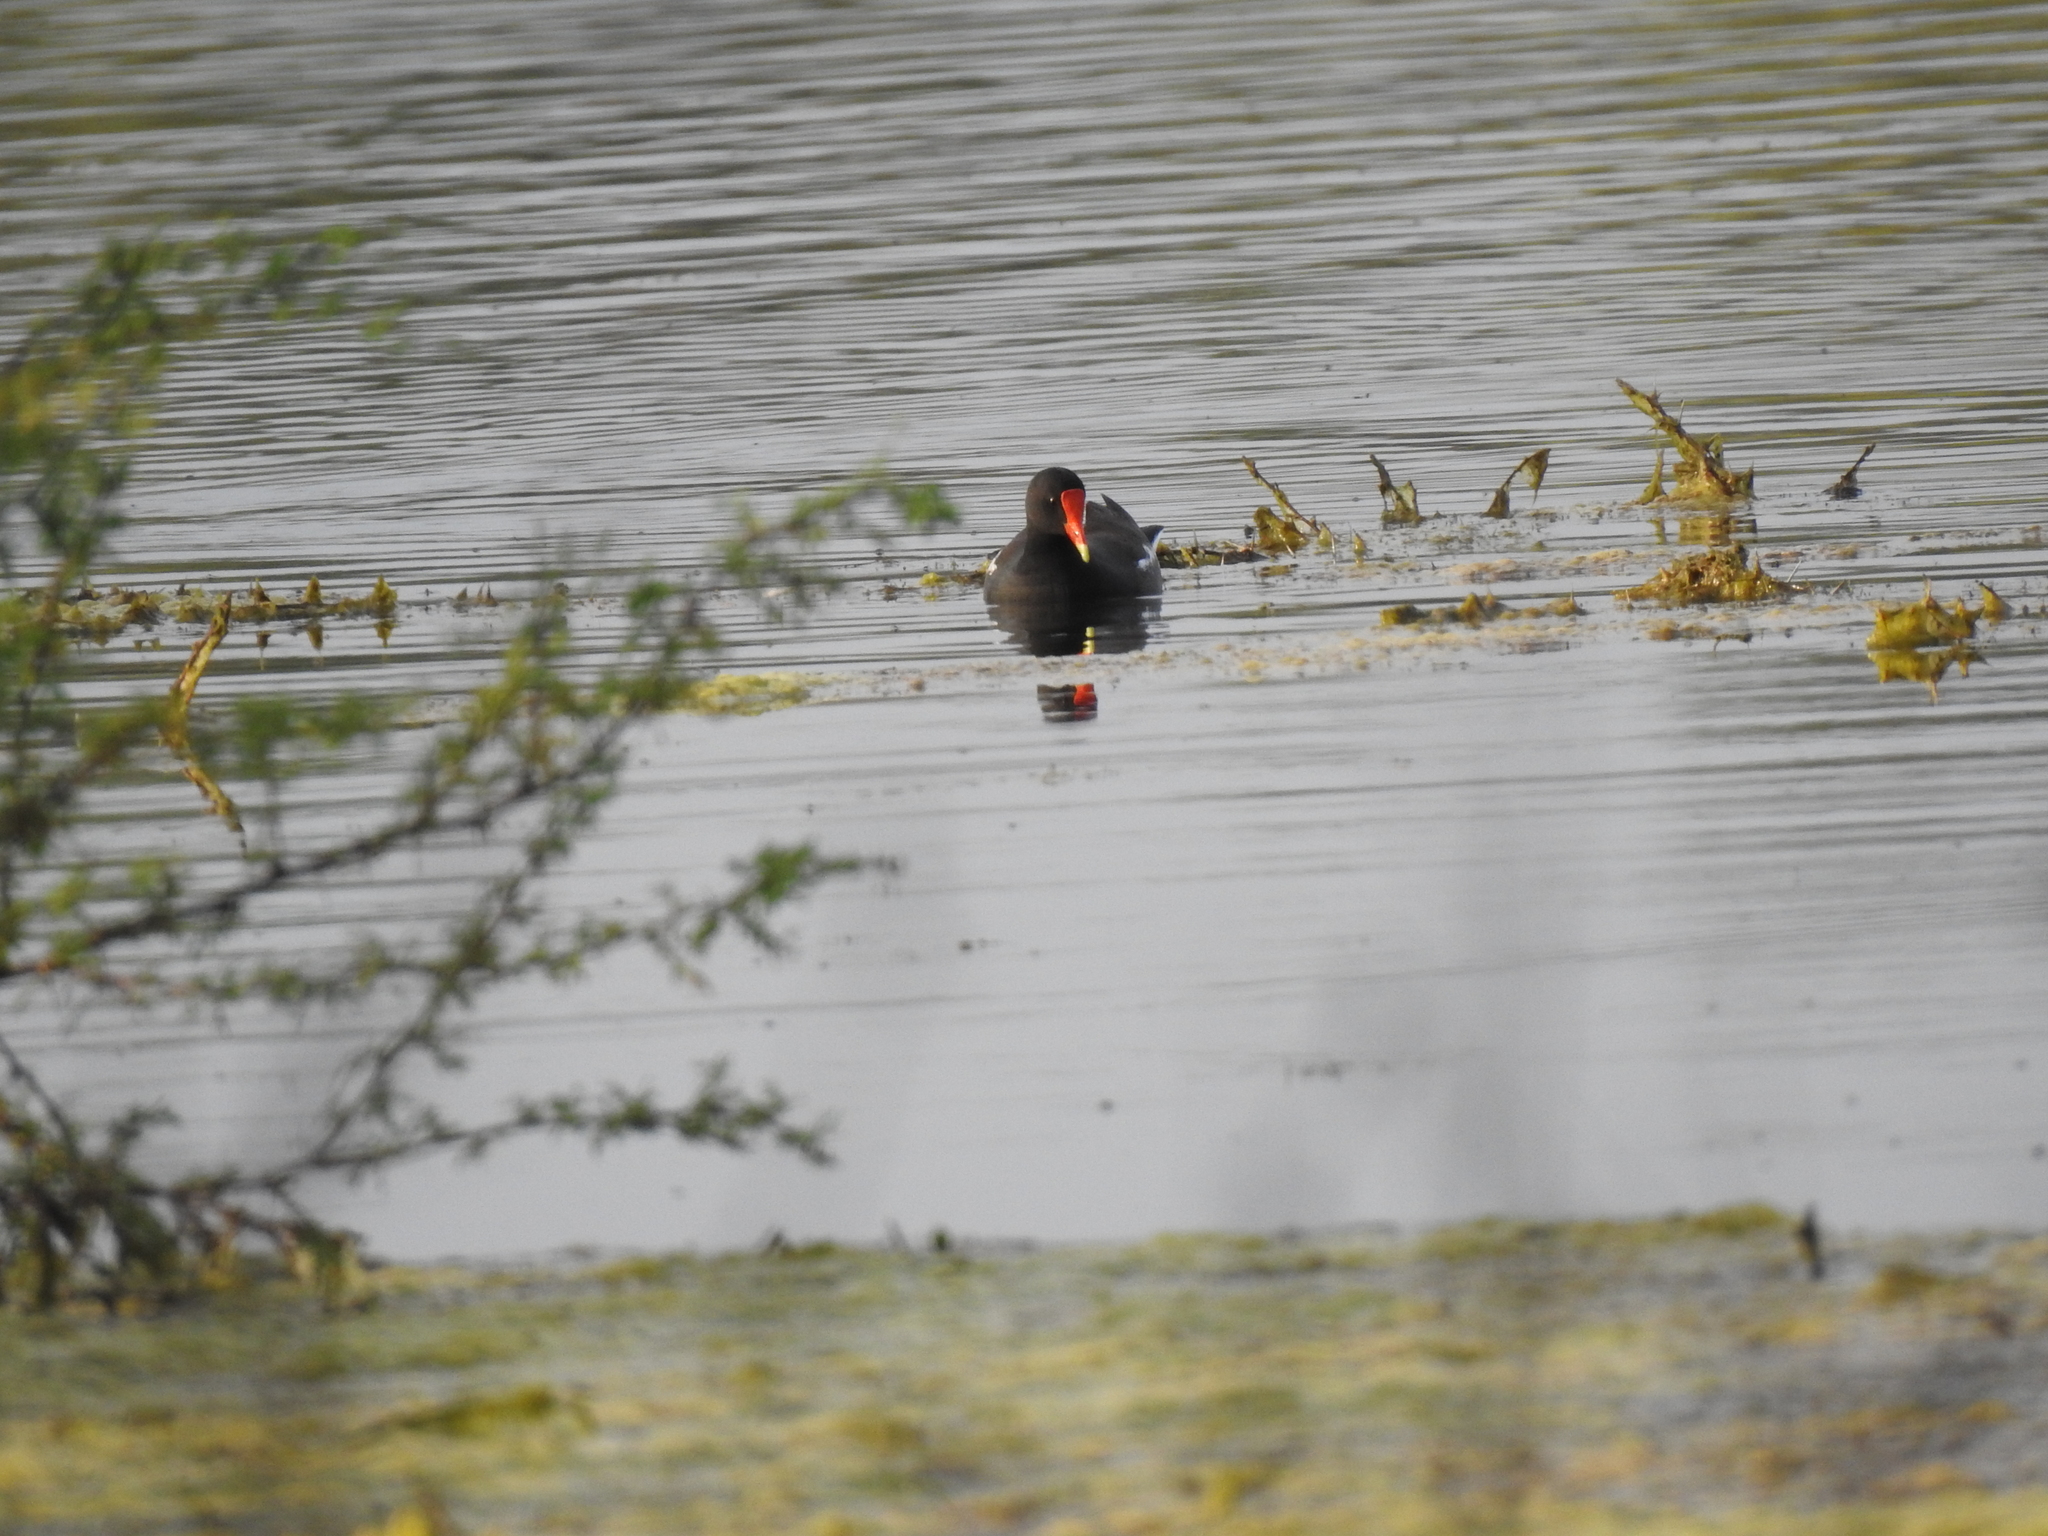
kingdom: Animalia
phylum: Chordata
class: Aves
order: Gruiformes
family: Rallidae
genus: Gallinula
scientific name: Gallinula chloropus
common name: Common moorhen
